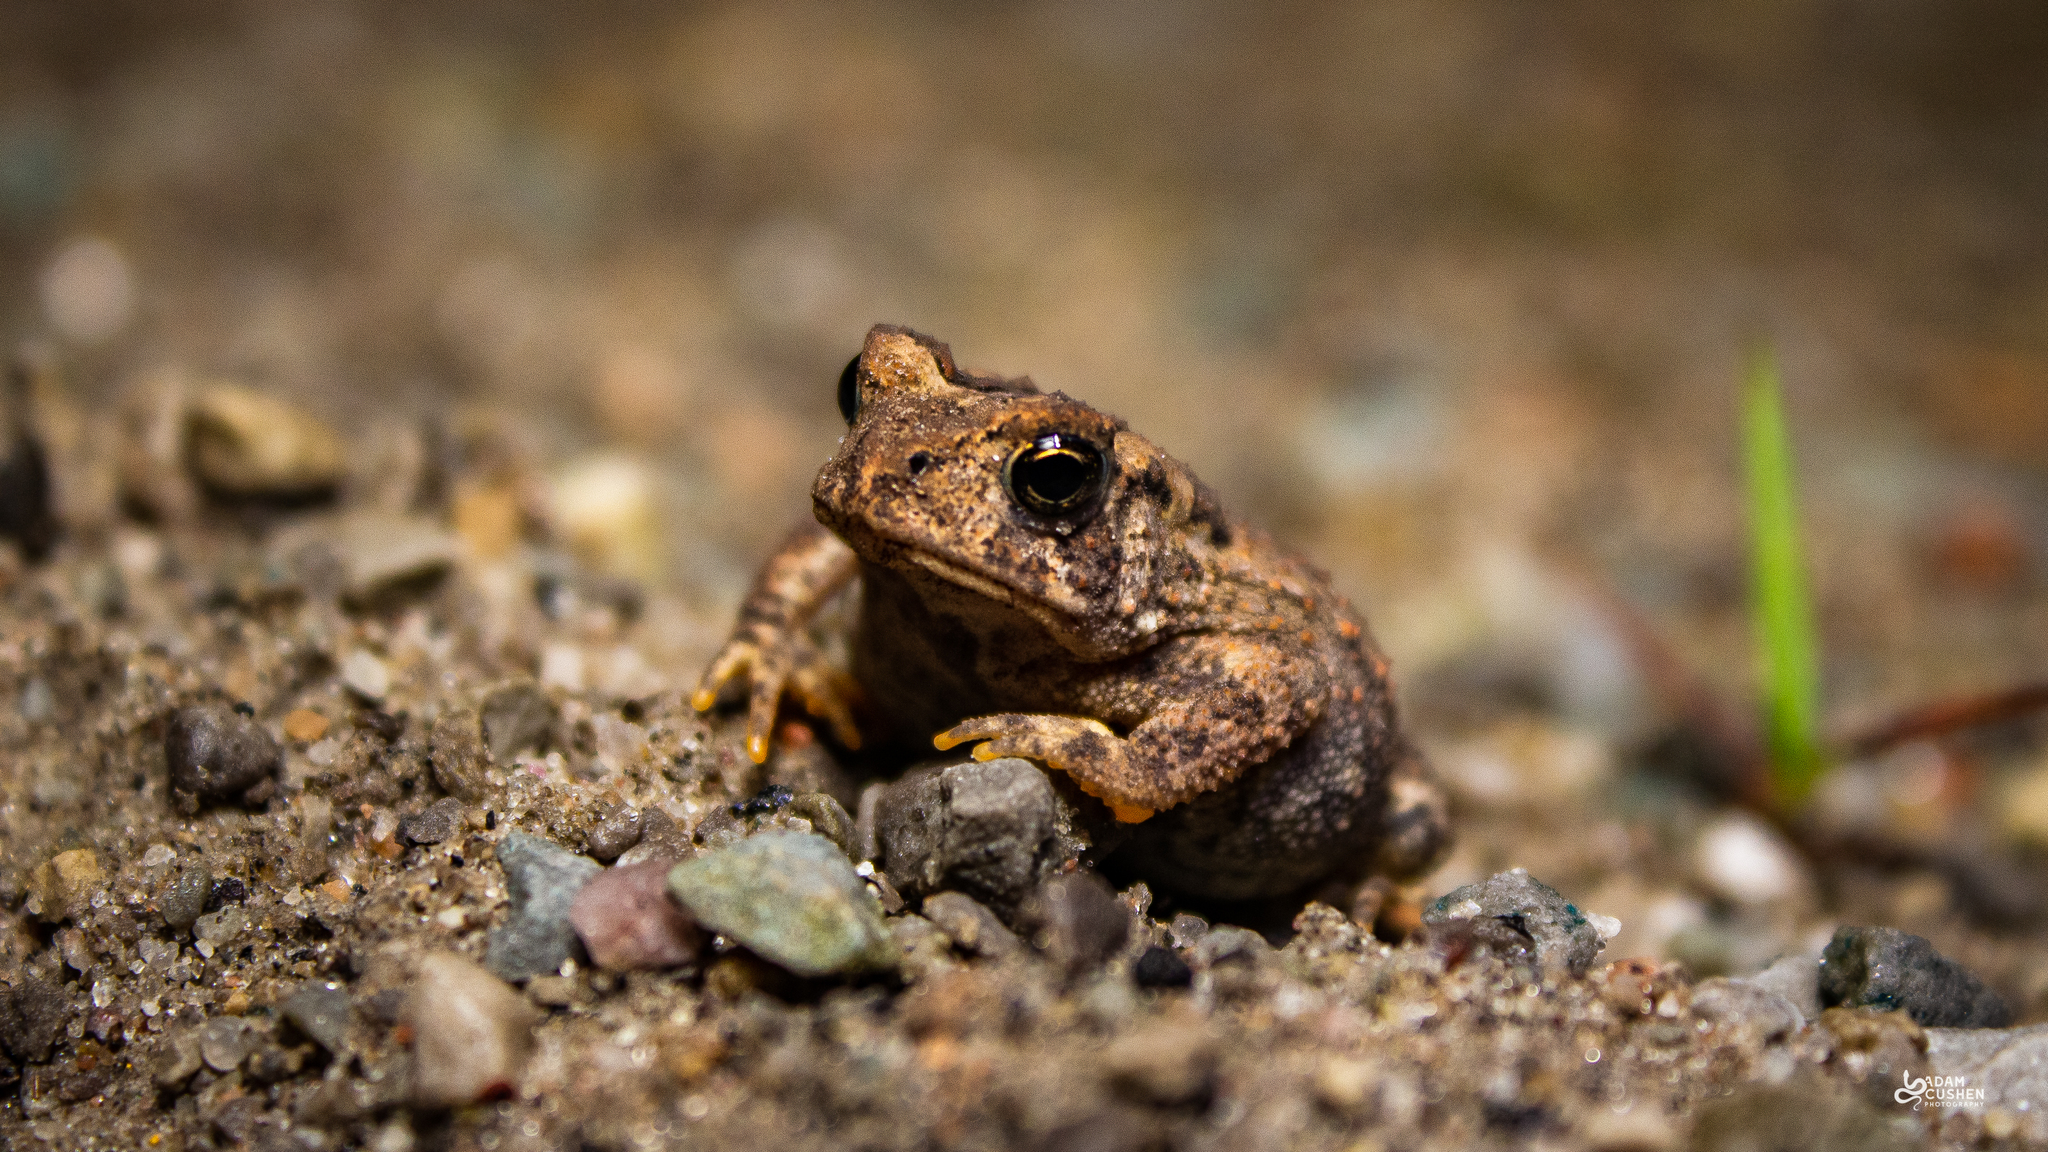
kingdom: Animalia
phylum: Chordata
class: Amphibia
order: Anura
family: Bufonidae
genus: Anaxyrus
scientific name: Anaxyrus americanus
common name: American toad
